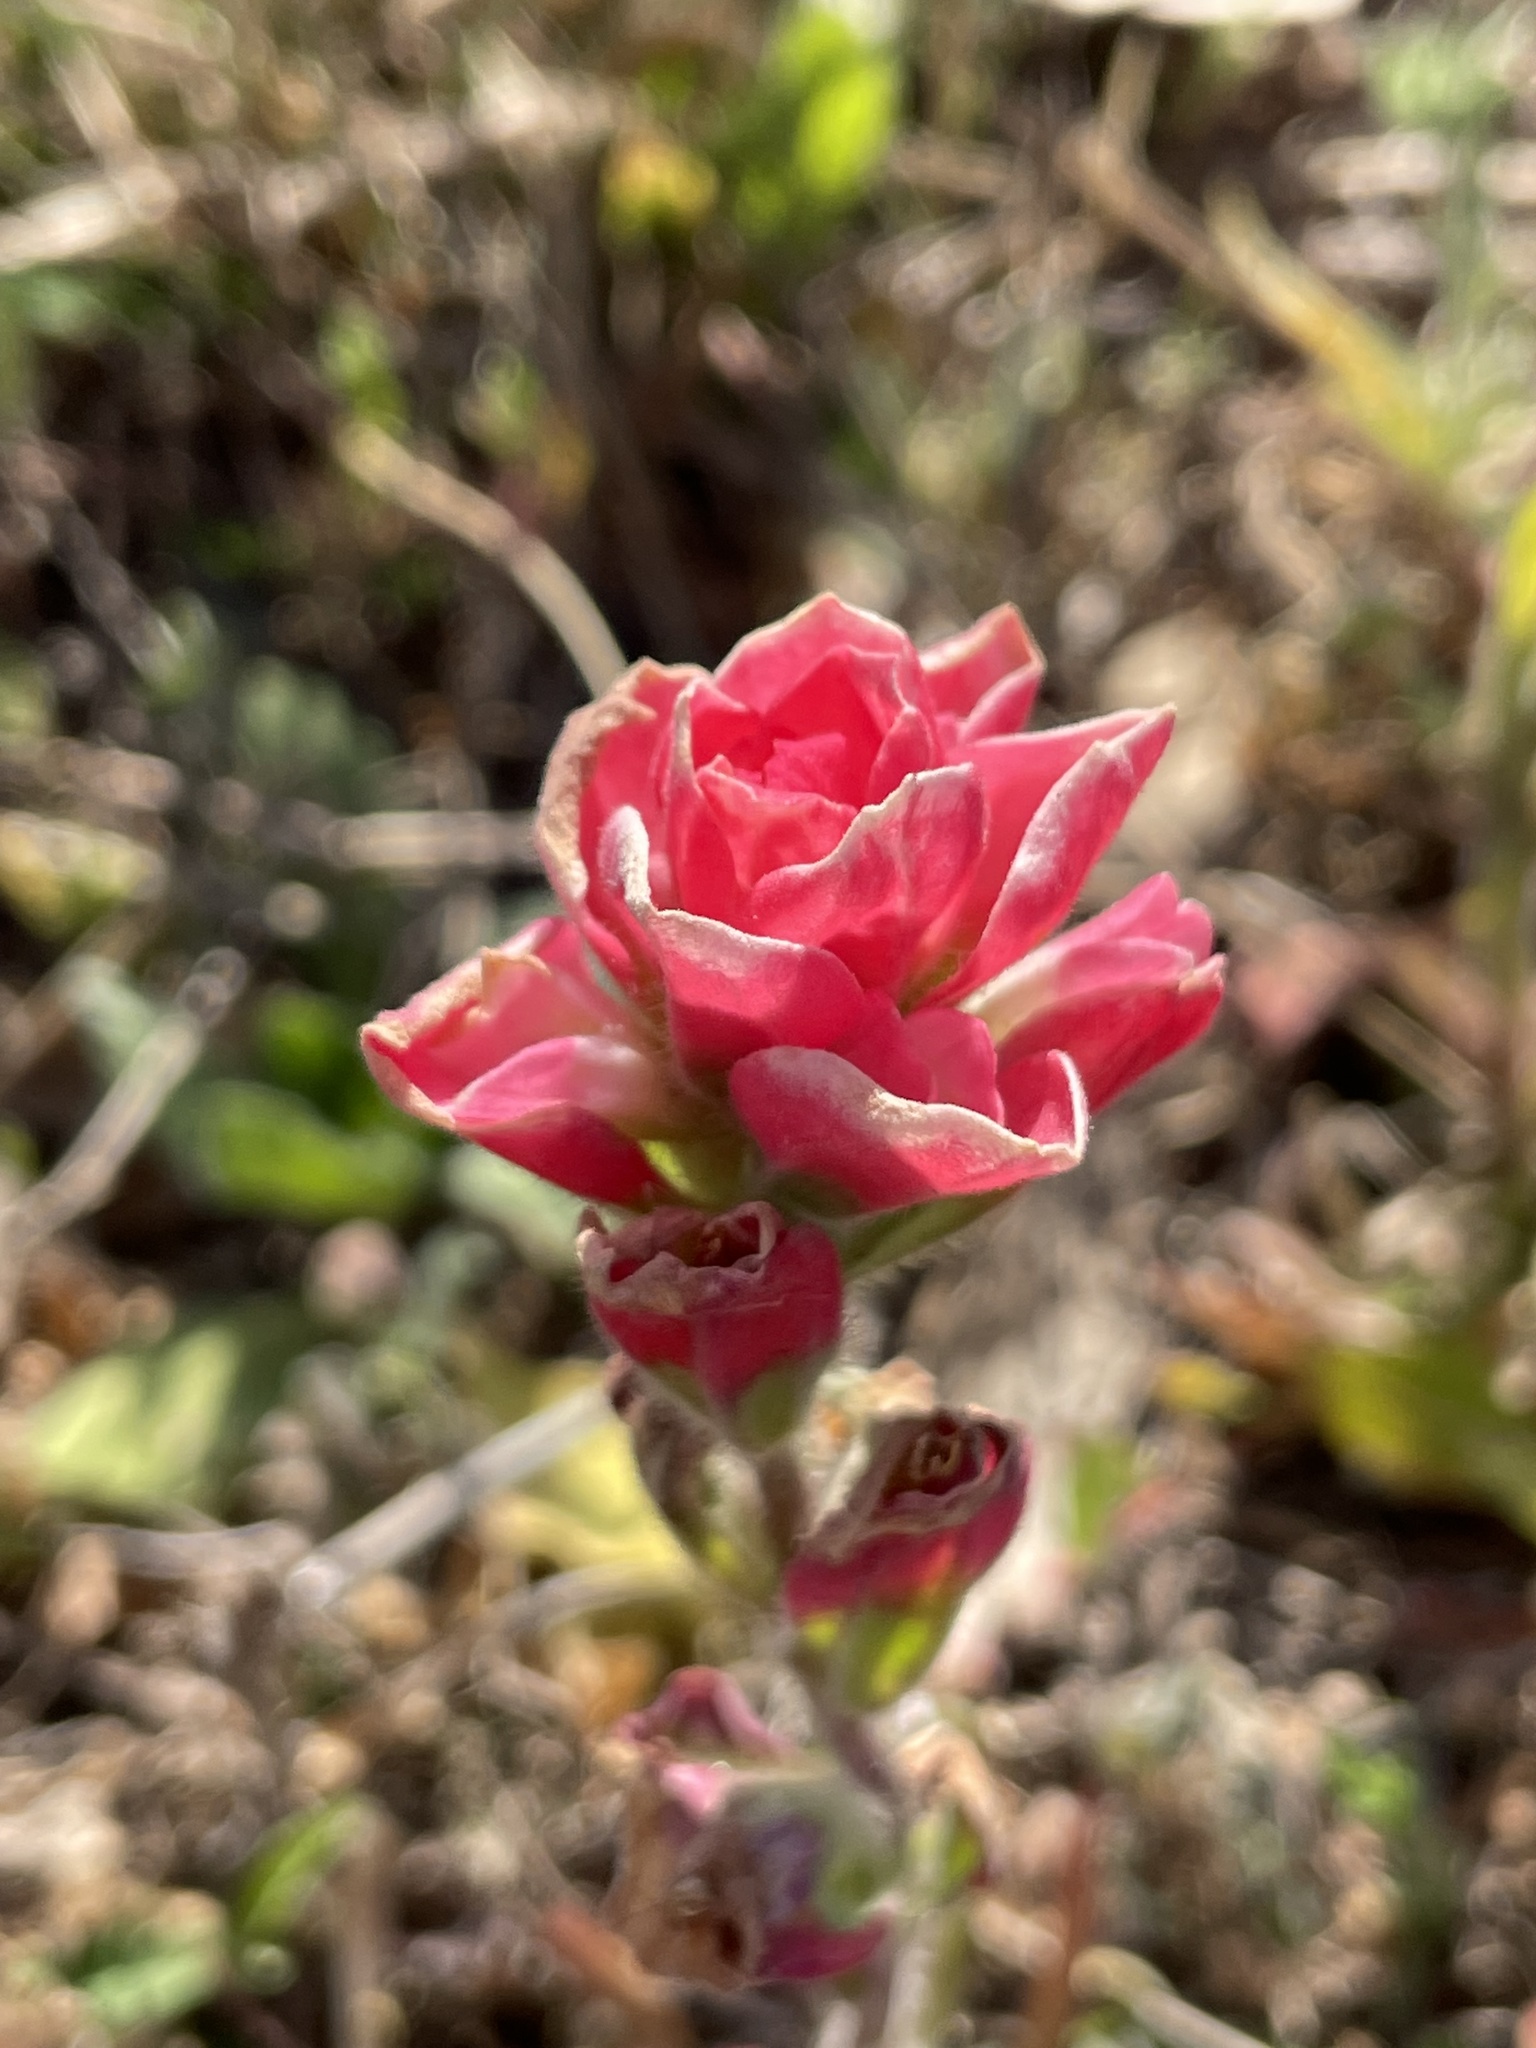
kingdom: Plantae
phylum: Tracheophyta
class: Magnoliopsida
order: Lamiales
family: Orobanchaceae
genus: Castilleja
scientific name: Castilleja indivisa
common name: Texas paintbrush
